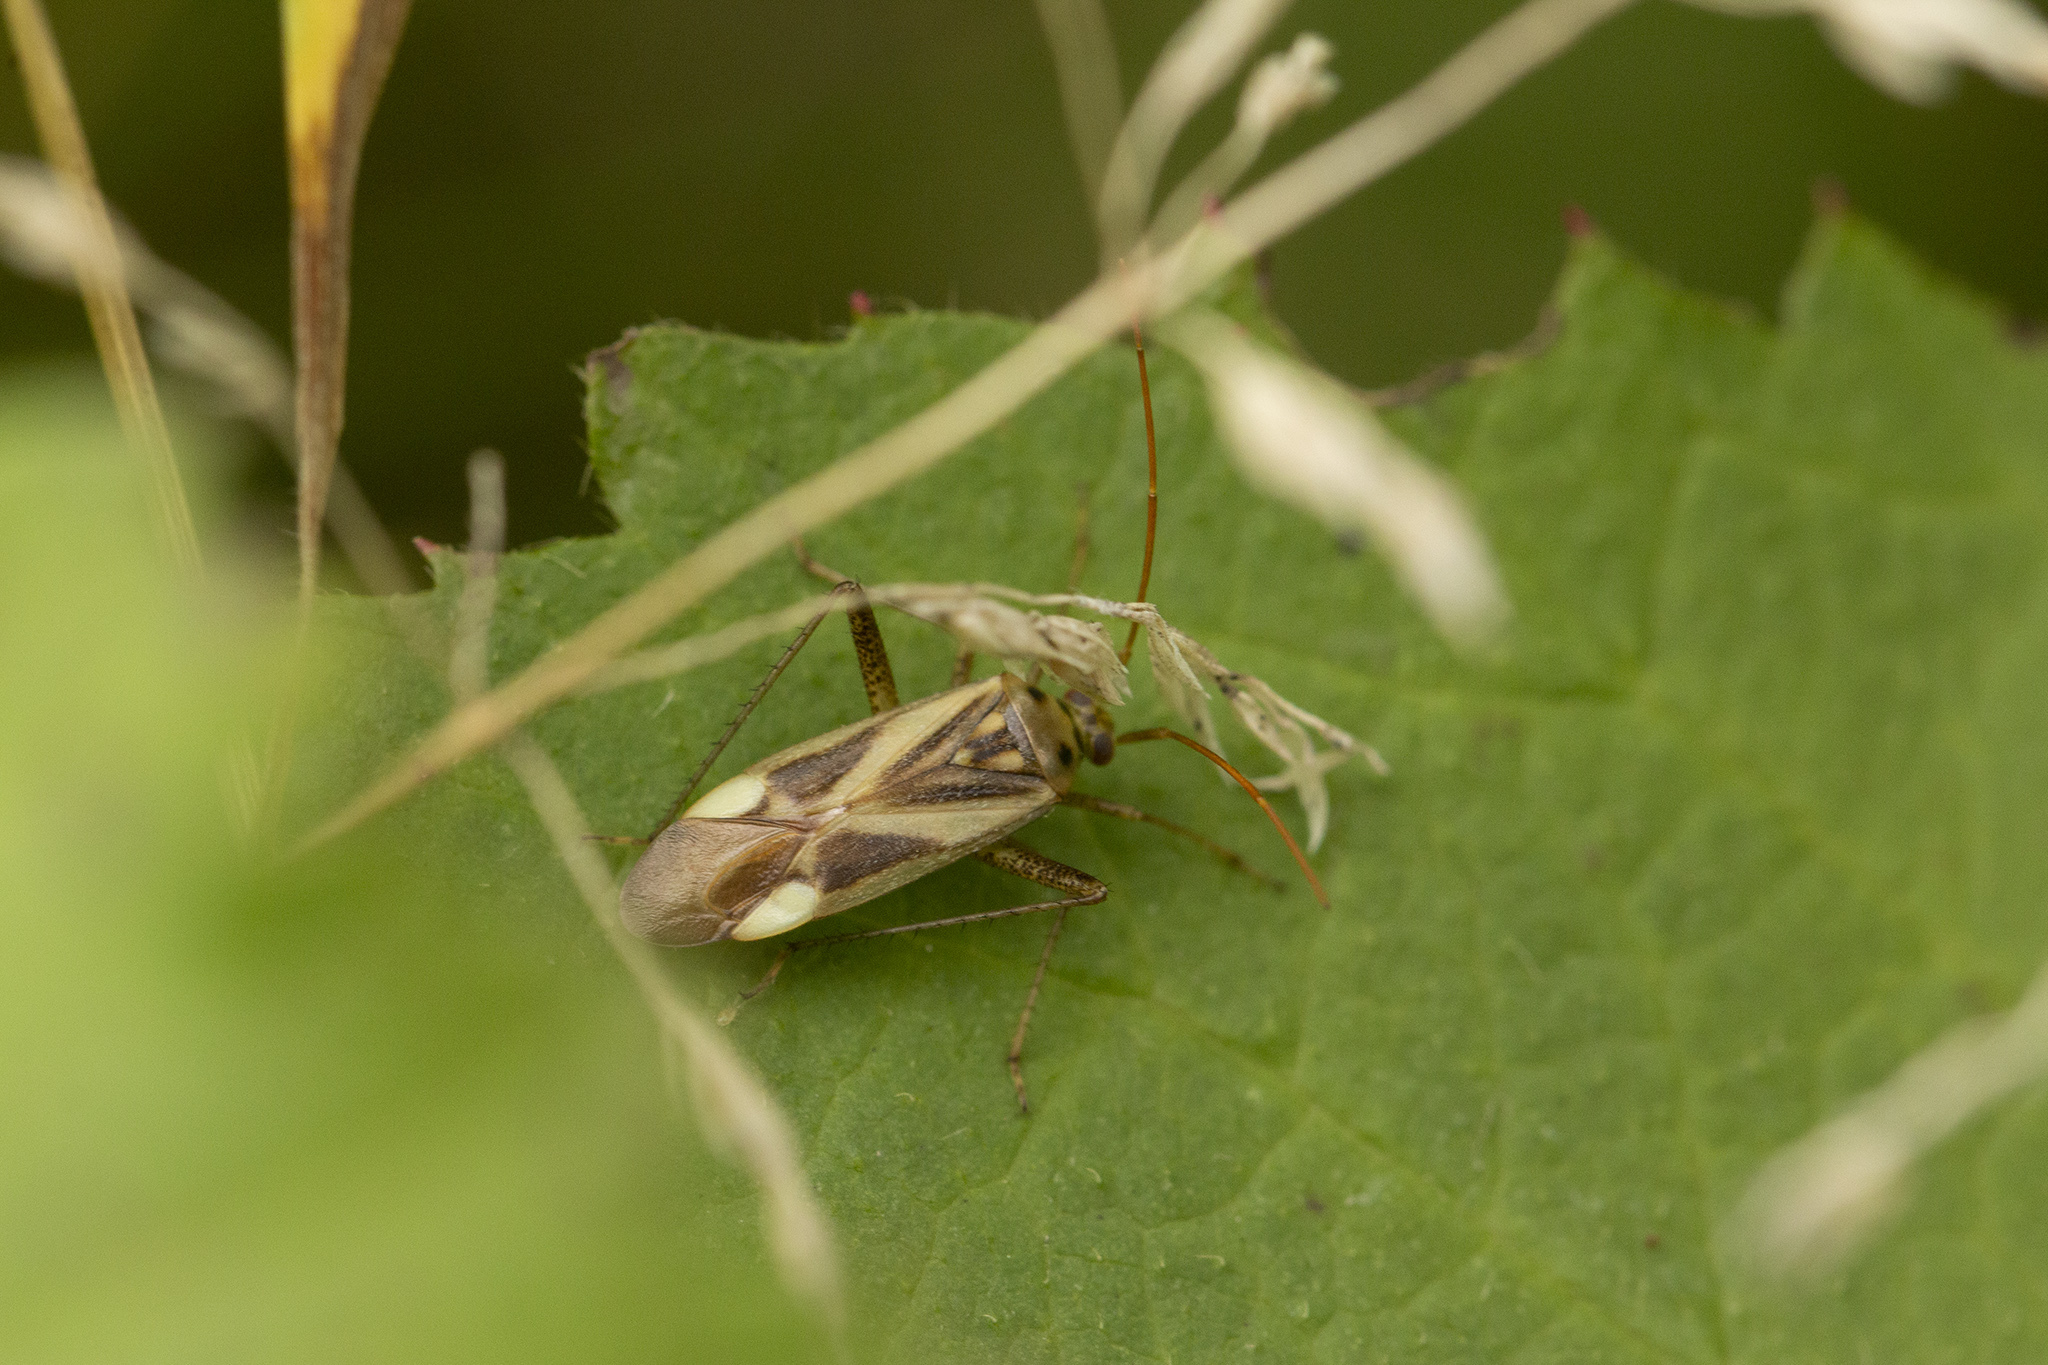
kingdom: Animalia
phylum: Arthropoda
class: Insecta
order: Hemiptera
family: Miridae
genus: Adelphocoris
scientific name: Adelphocoris lineolatus
